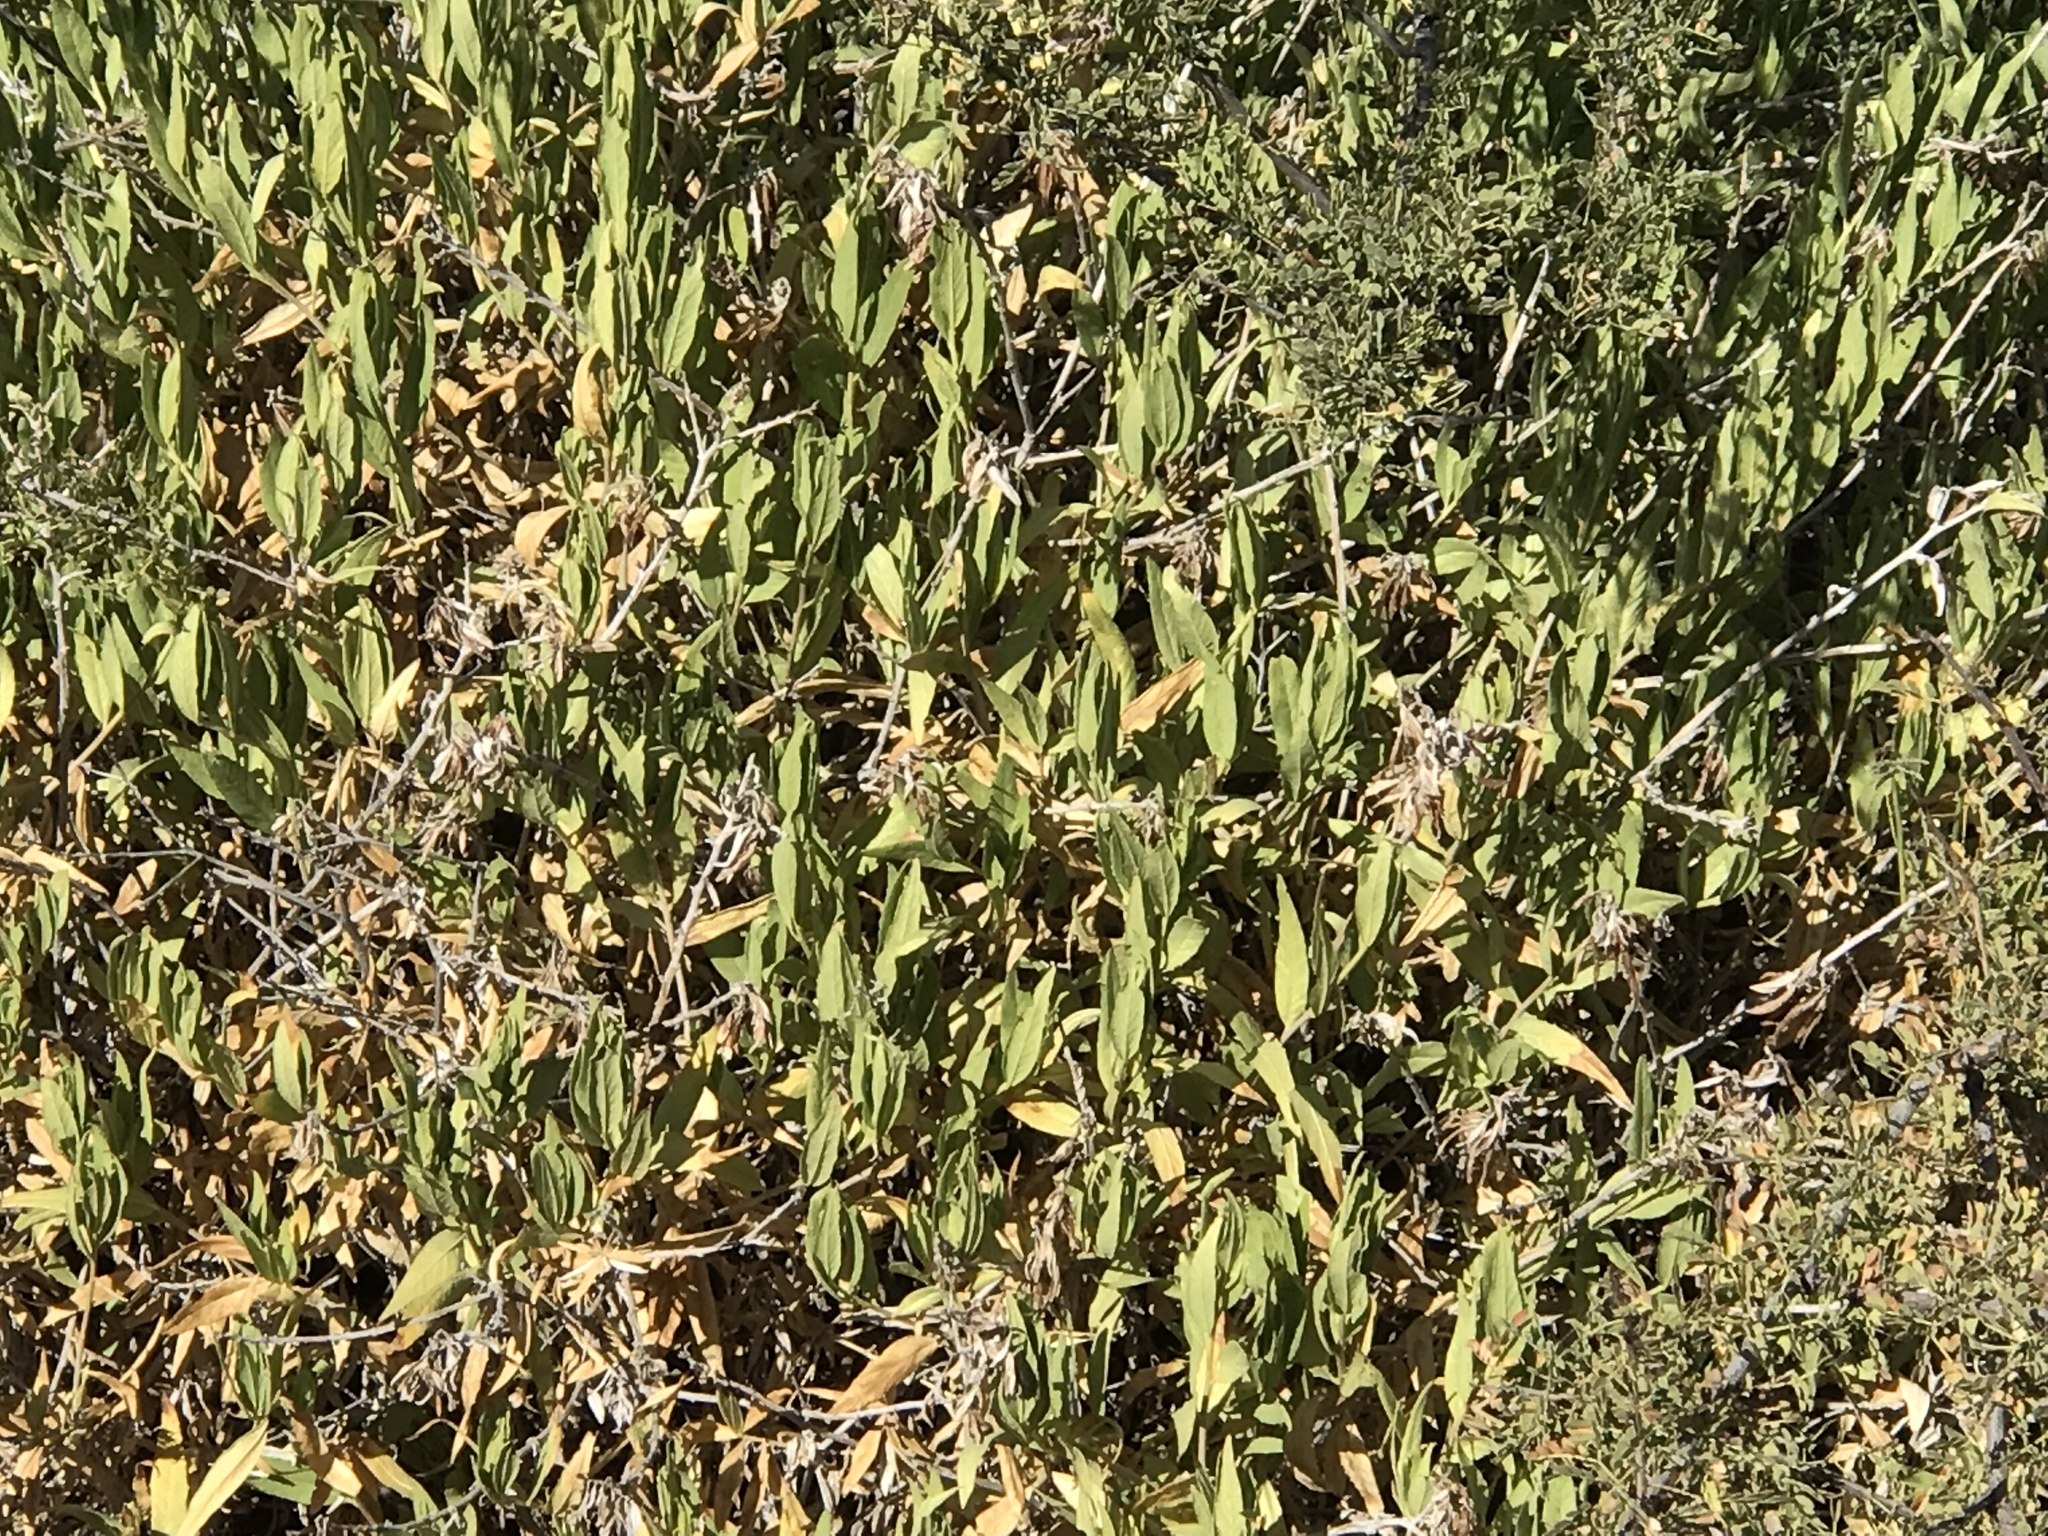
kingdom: Plantae
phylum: Tracheophyta
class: Magnoliopsida
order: Asterales
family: Asteraceae
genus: Ambrosia
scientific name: Ambrosia deltoidea
